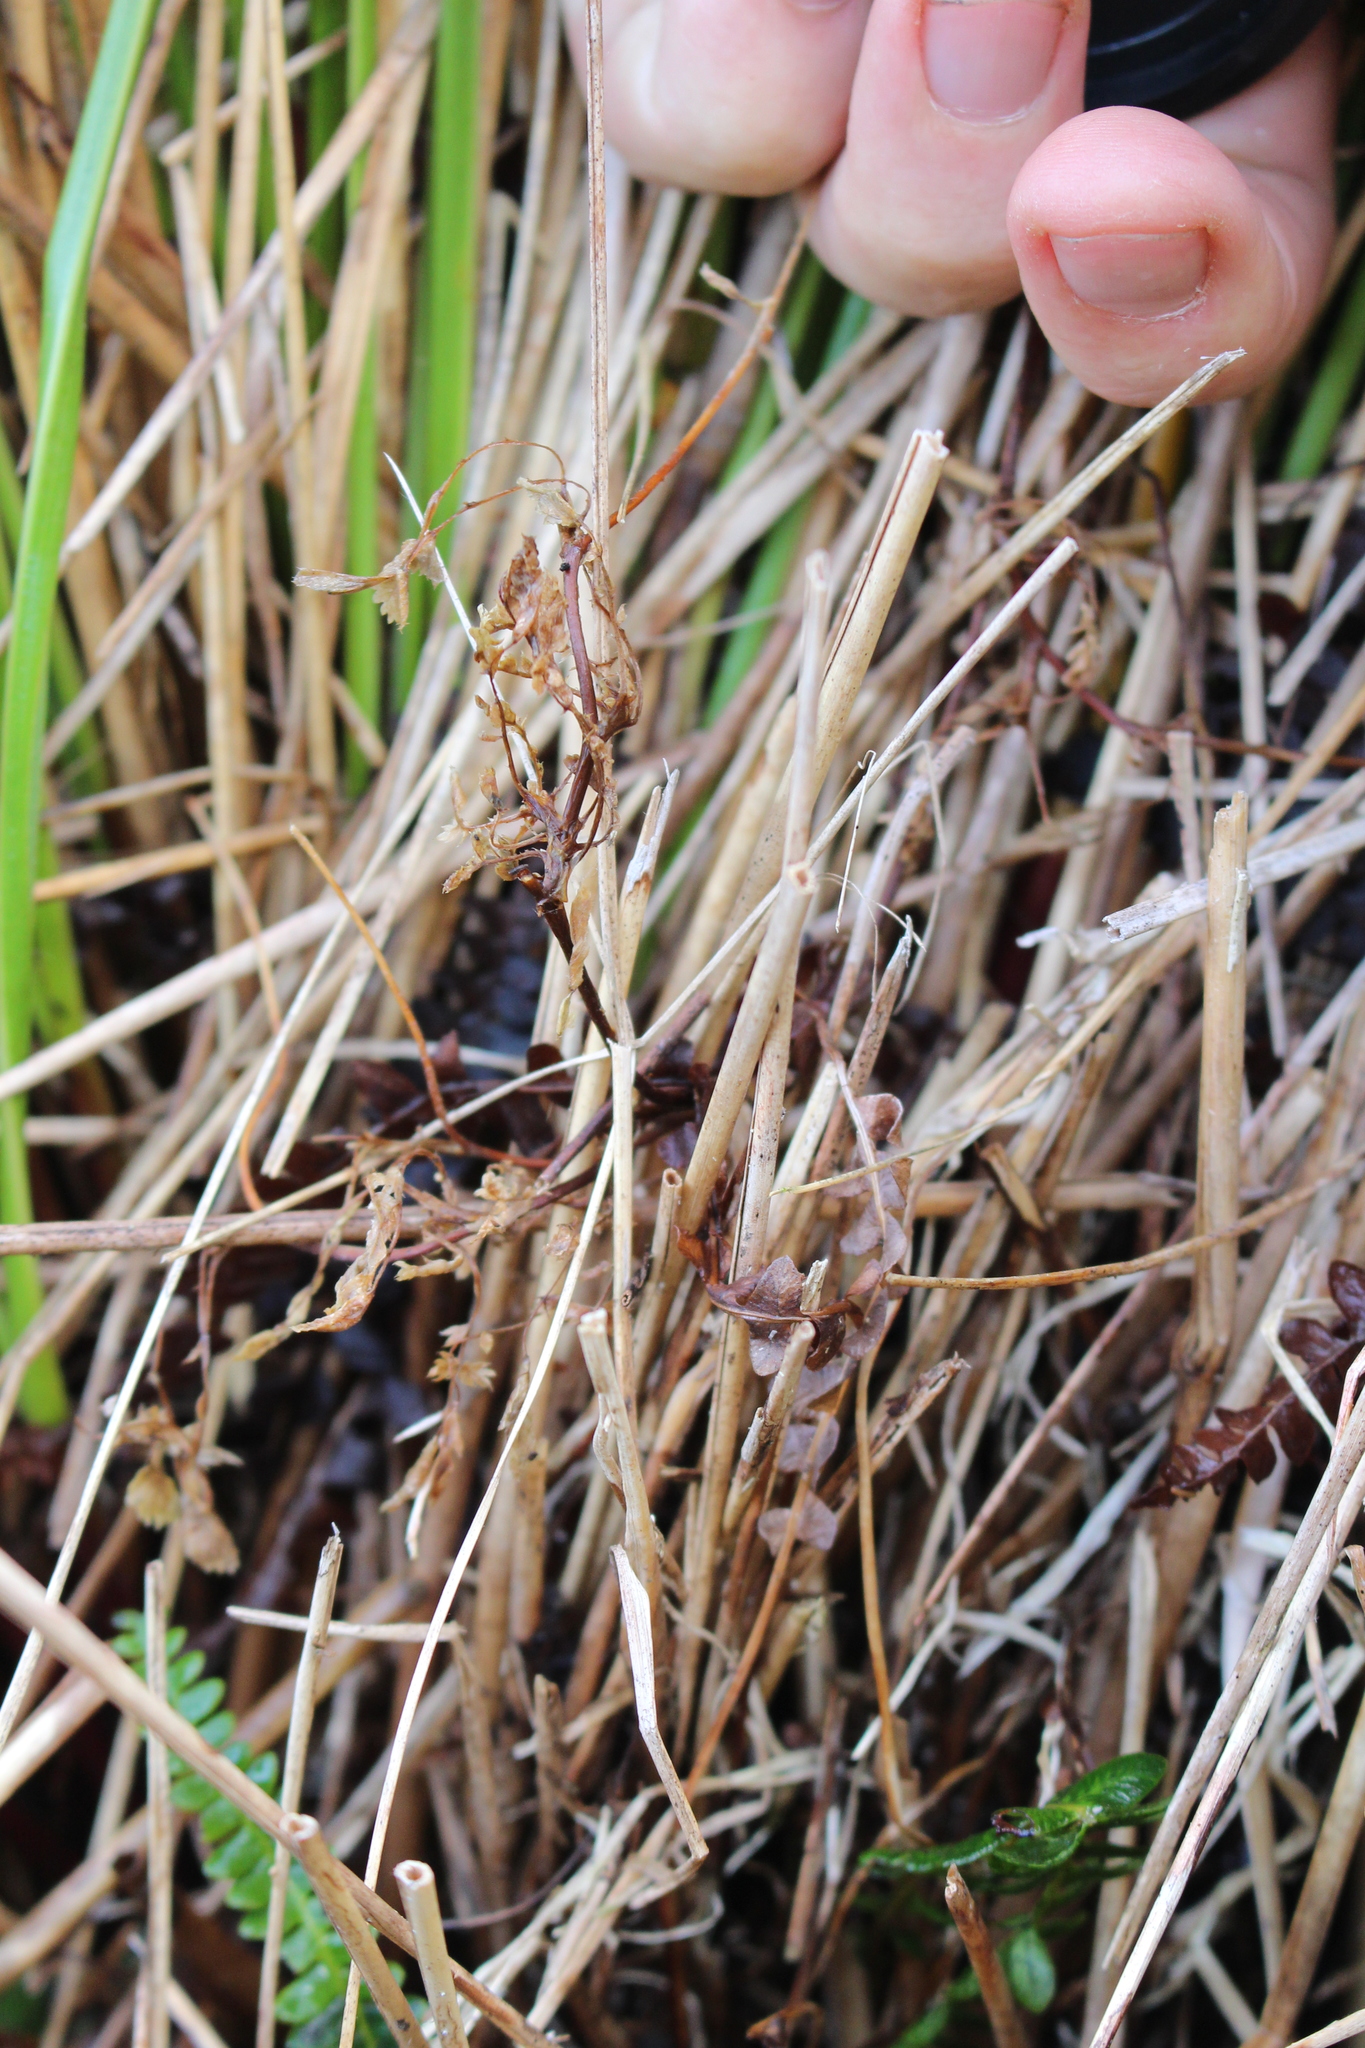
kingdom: Plantae
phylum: Tracheophyta
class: Liliopsida
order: Poales
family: Poaceae
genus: Chionochloa
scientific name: Chionochloa pallens
